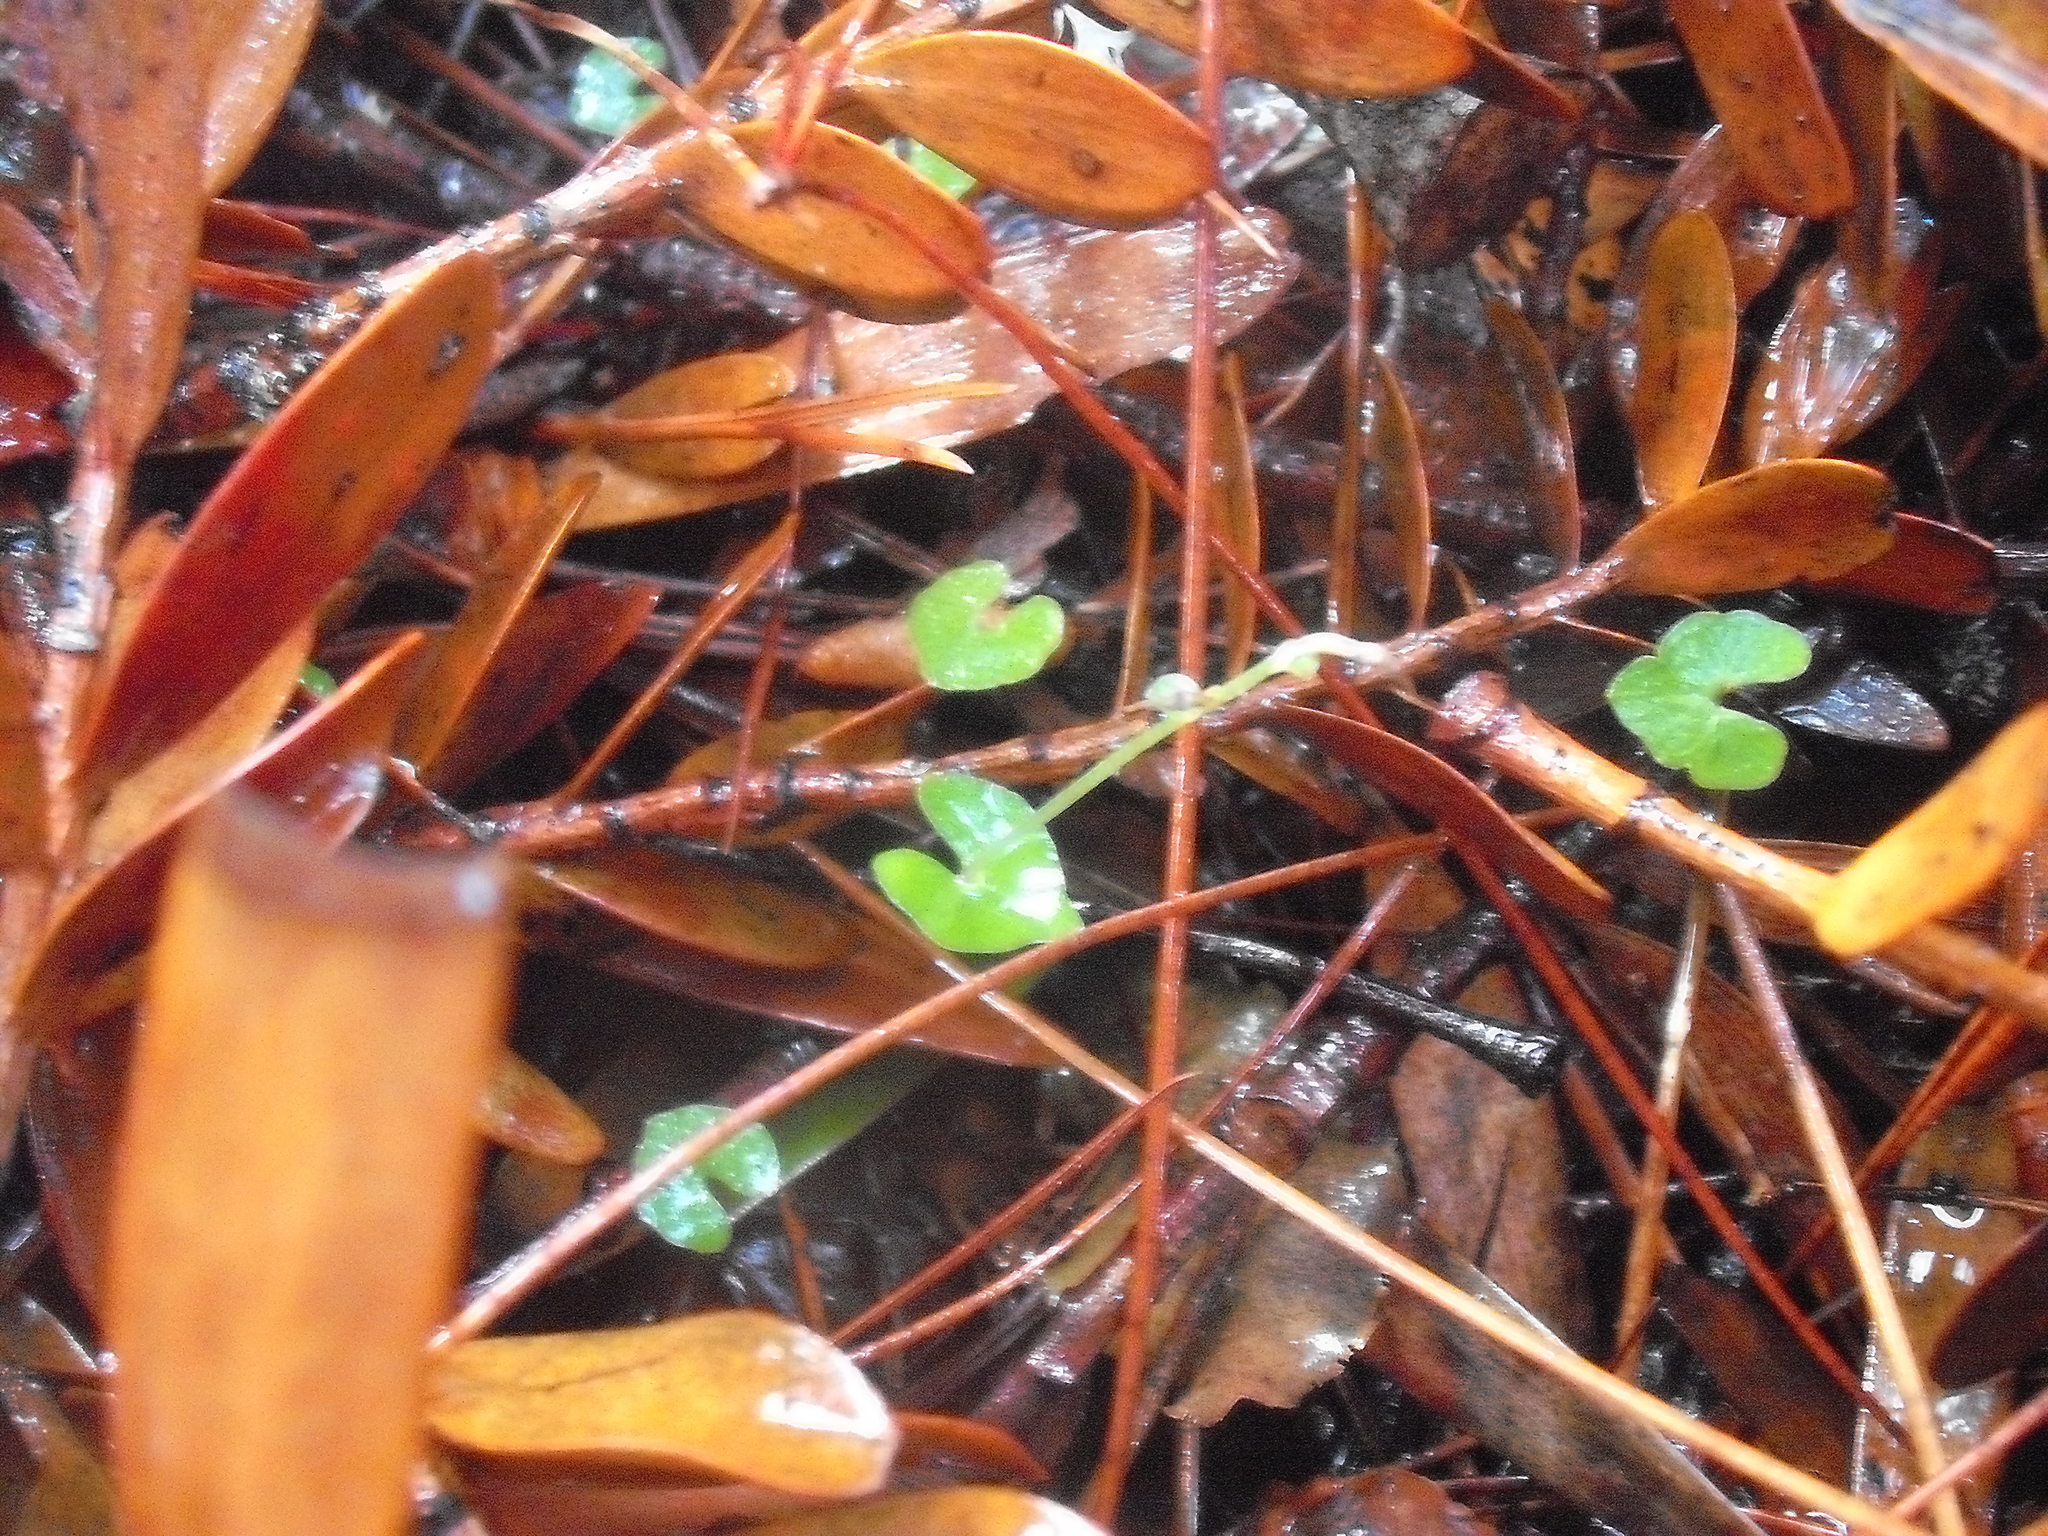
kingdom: Plantae
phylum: Tracheophyta
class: Liliopsida
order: Asparagales
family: Orchidaceae
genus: Acianthus
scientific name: Acianthus sinclairii
